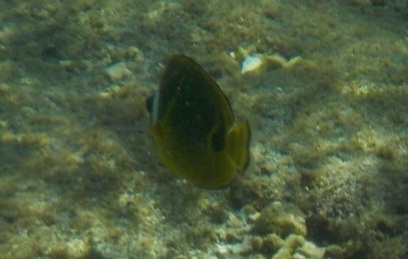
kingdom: Animalia
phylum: Chordata
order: Perciformes
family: Chaetodontidae
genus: Chaetodon
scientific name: Chaetodon lunula
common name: Raccoon butterflyfish
